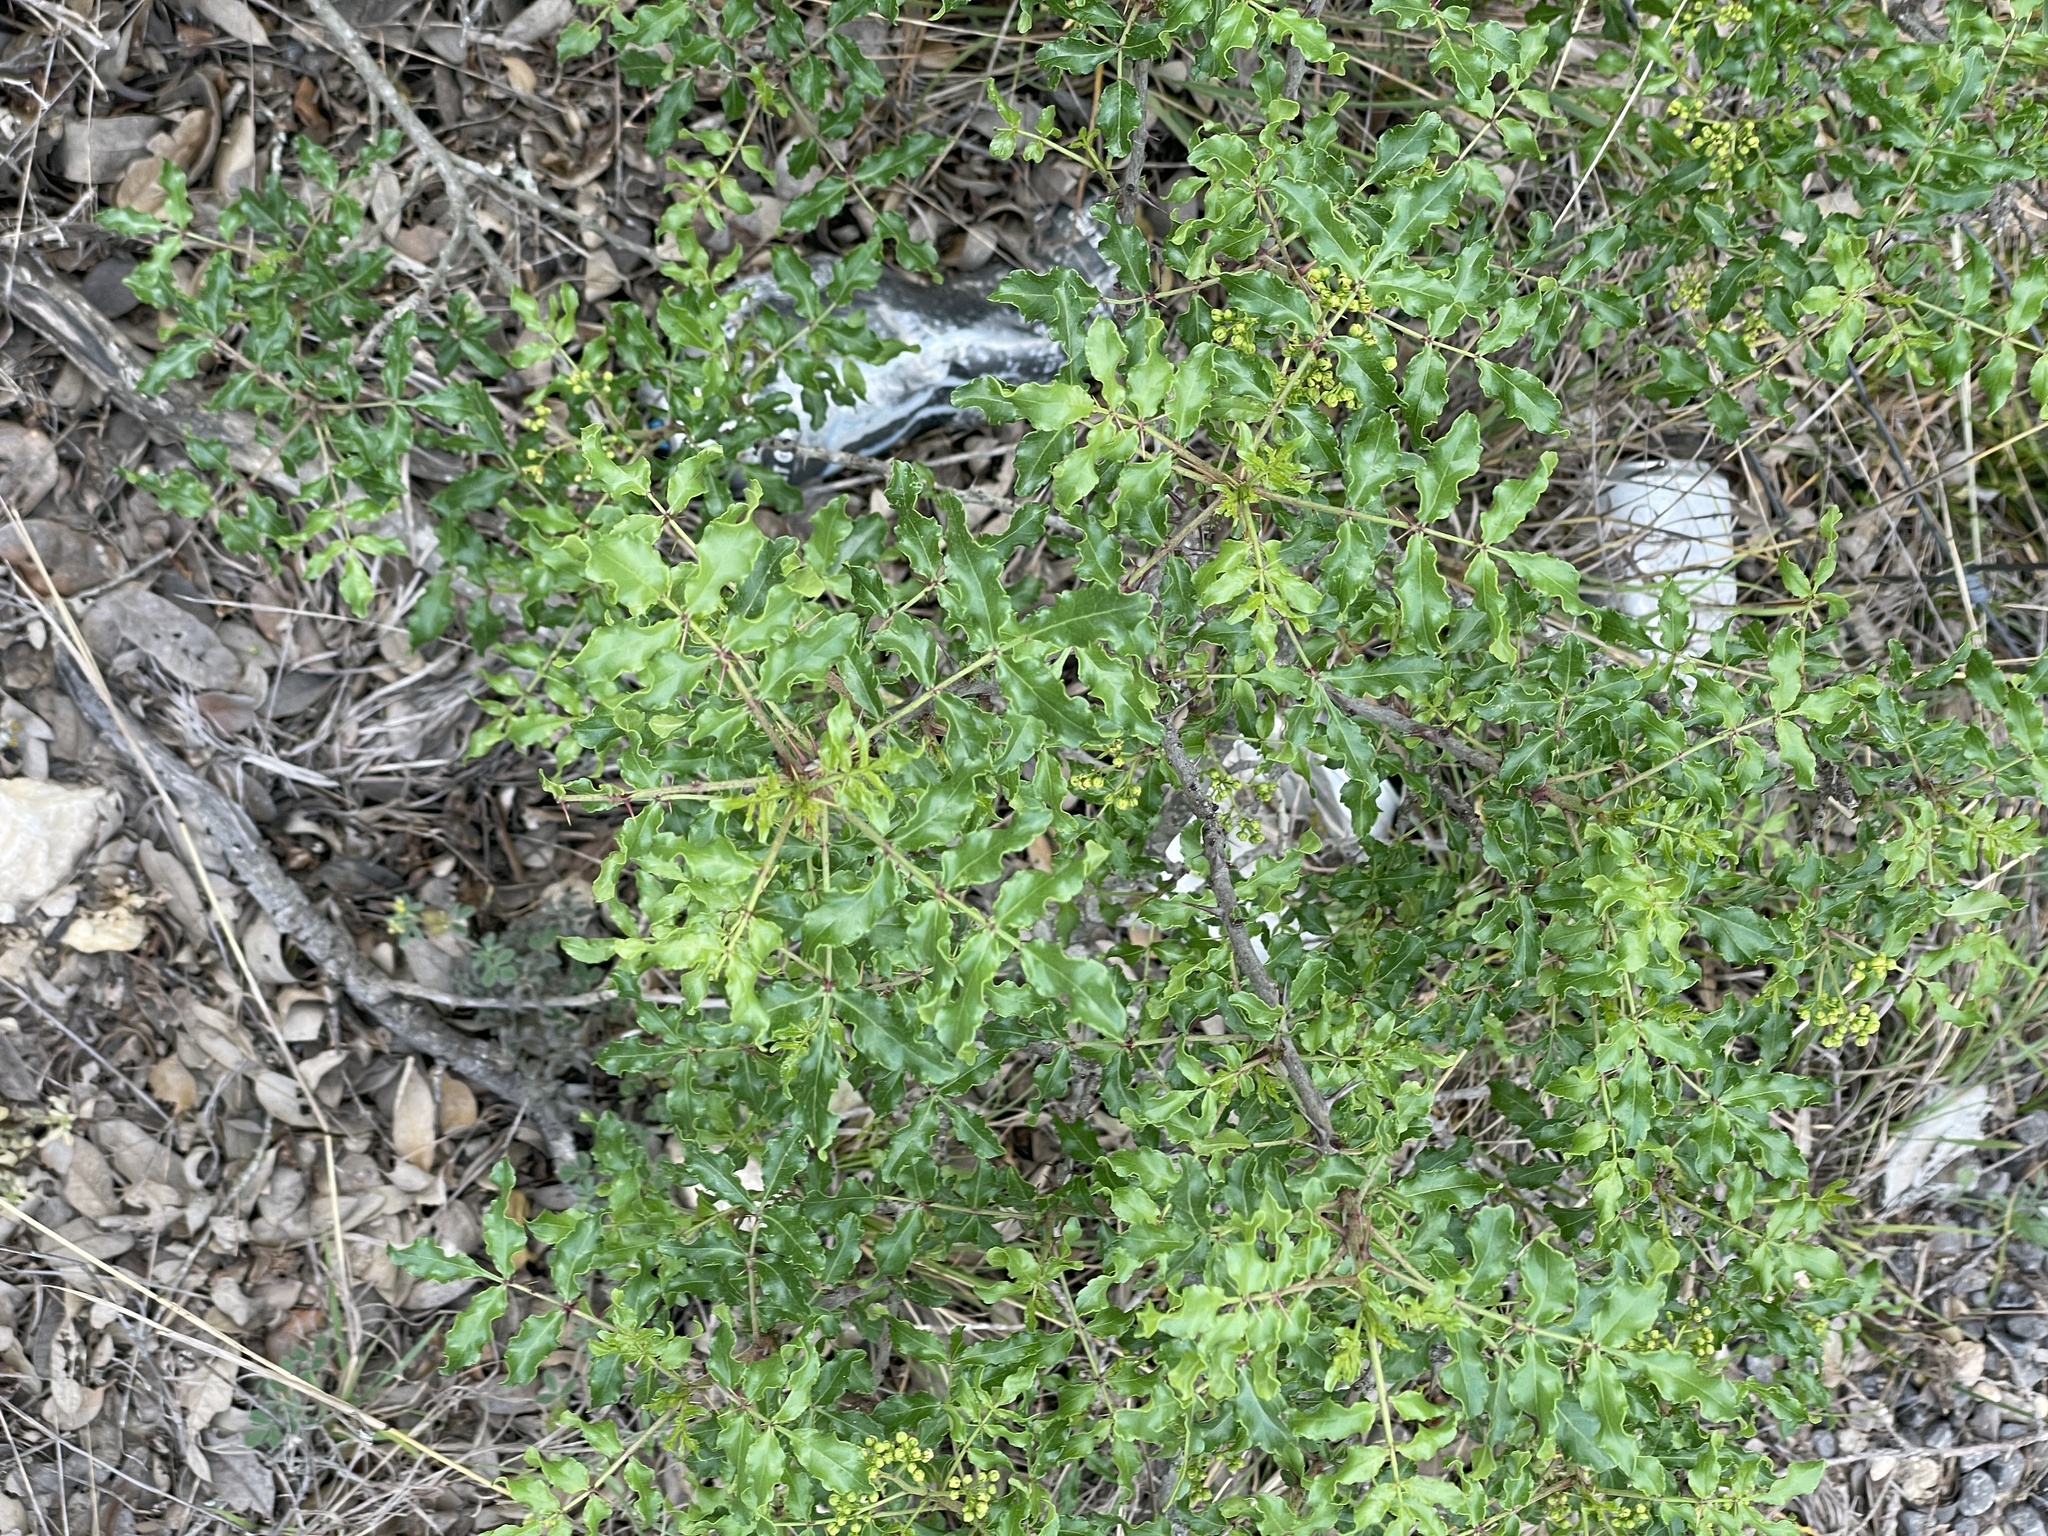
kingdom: Plantae
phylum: Tracheophyta
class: Magnoliopsida
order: Sapindales
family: Rutaceae
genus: Zanthoxylum
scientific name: Zanthoxylum clava-herculis
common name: Hercules'-club
